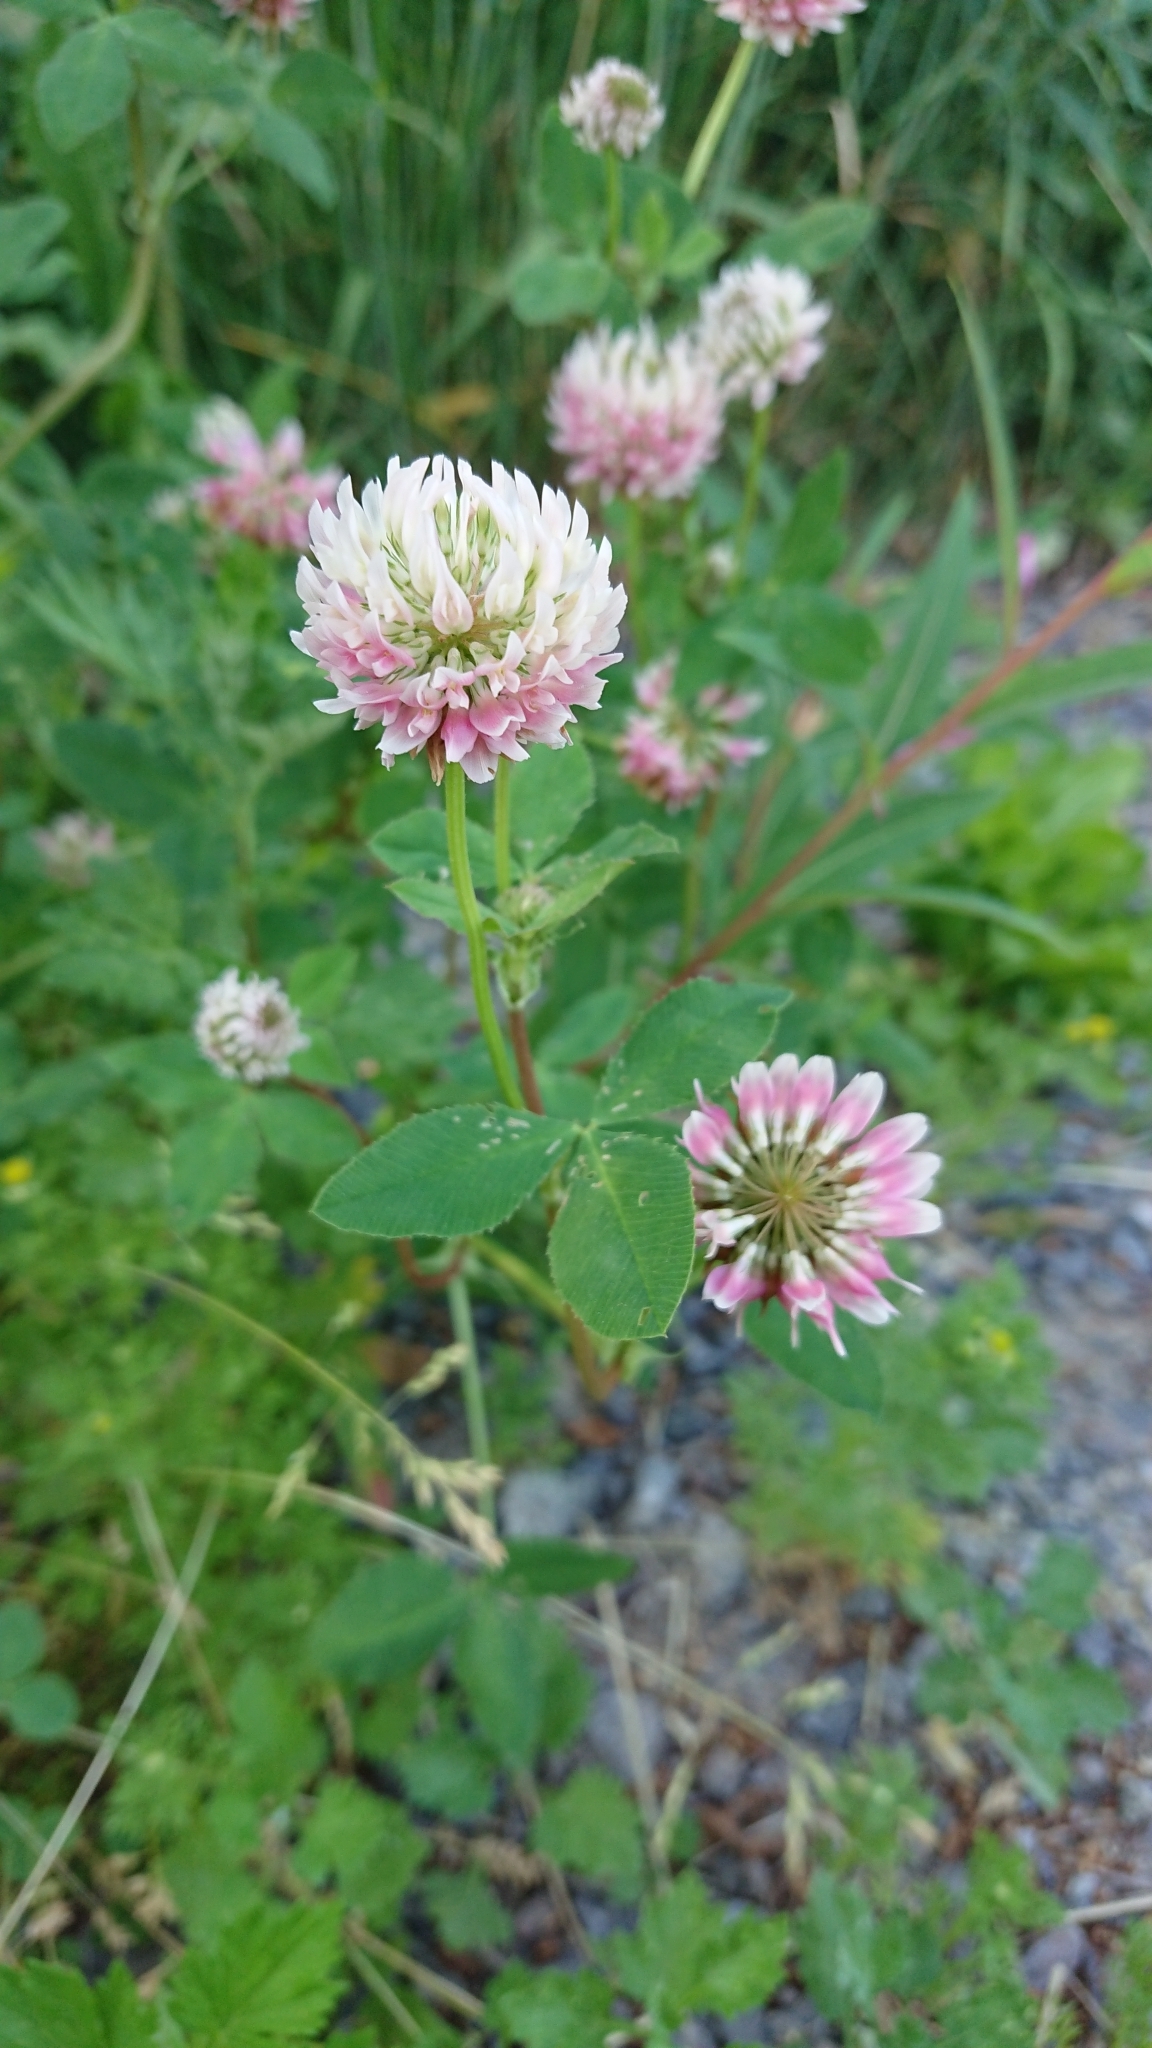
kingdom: Plantae
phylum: Tracheophyta
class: Magnoliopsida
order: Fabales
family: Fabaceae
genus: Trifolium
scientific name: Trifolium hybridum
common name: Alsike clover
